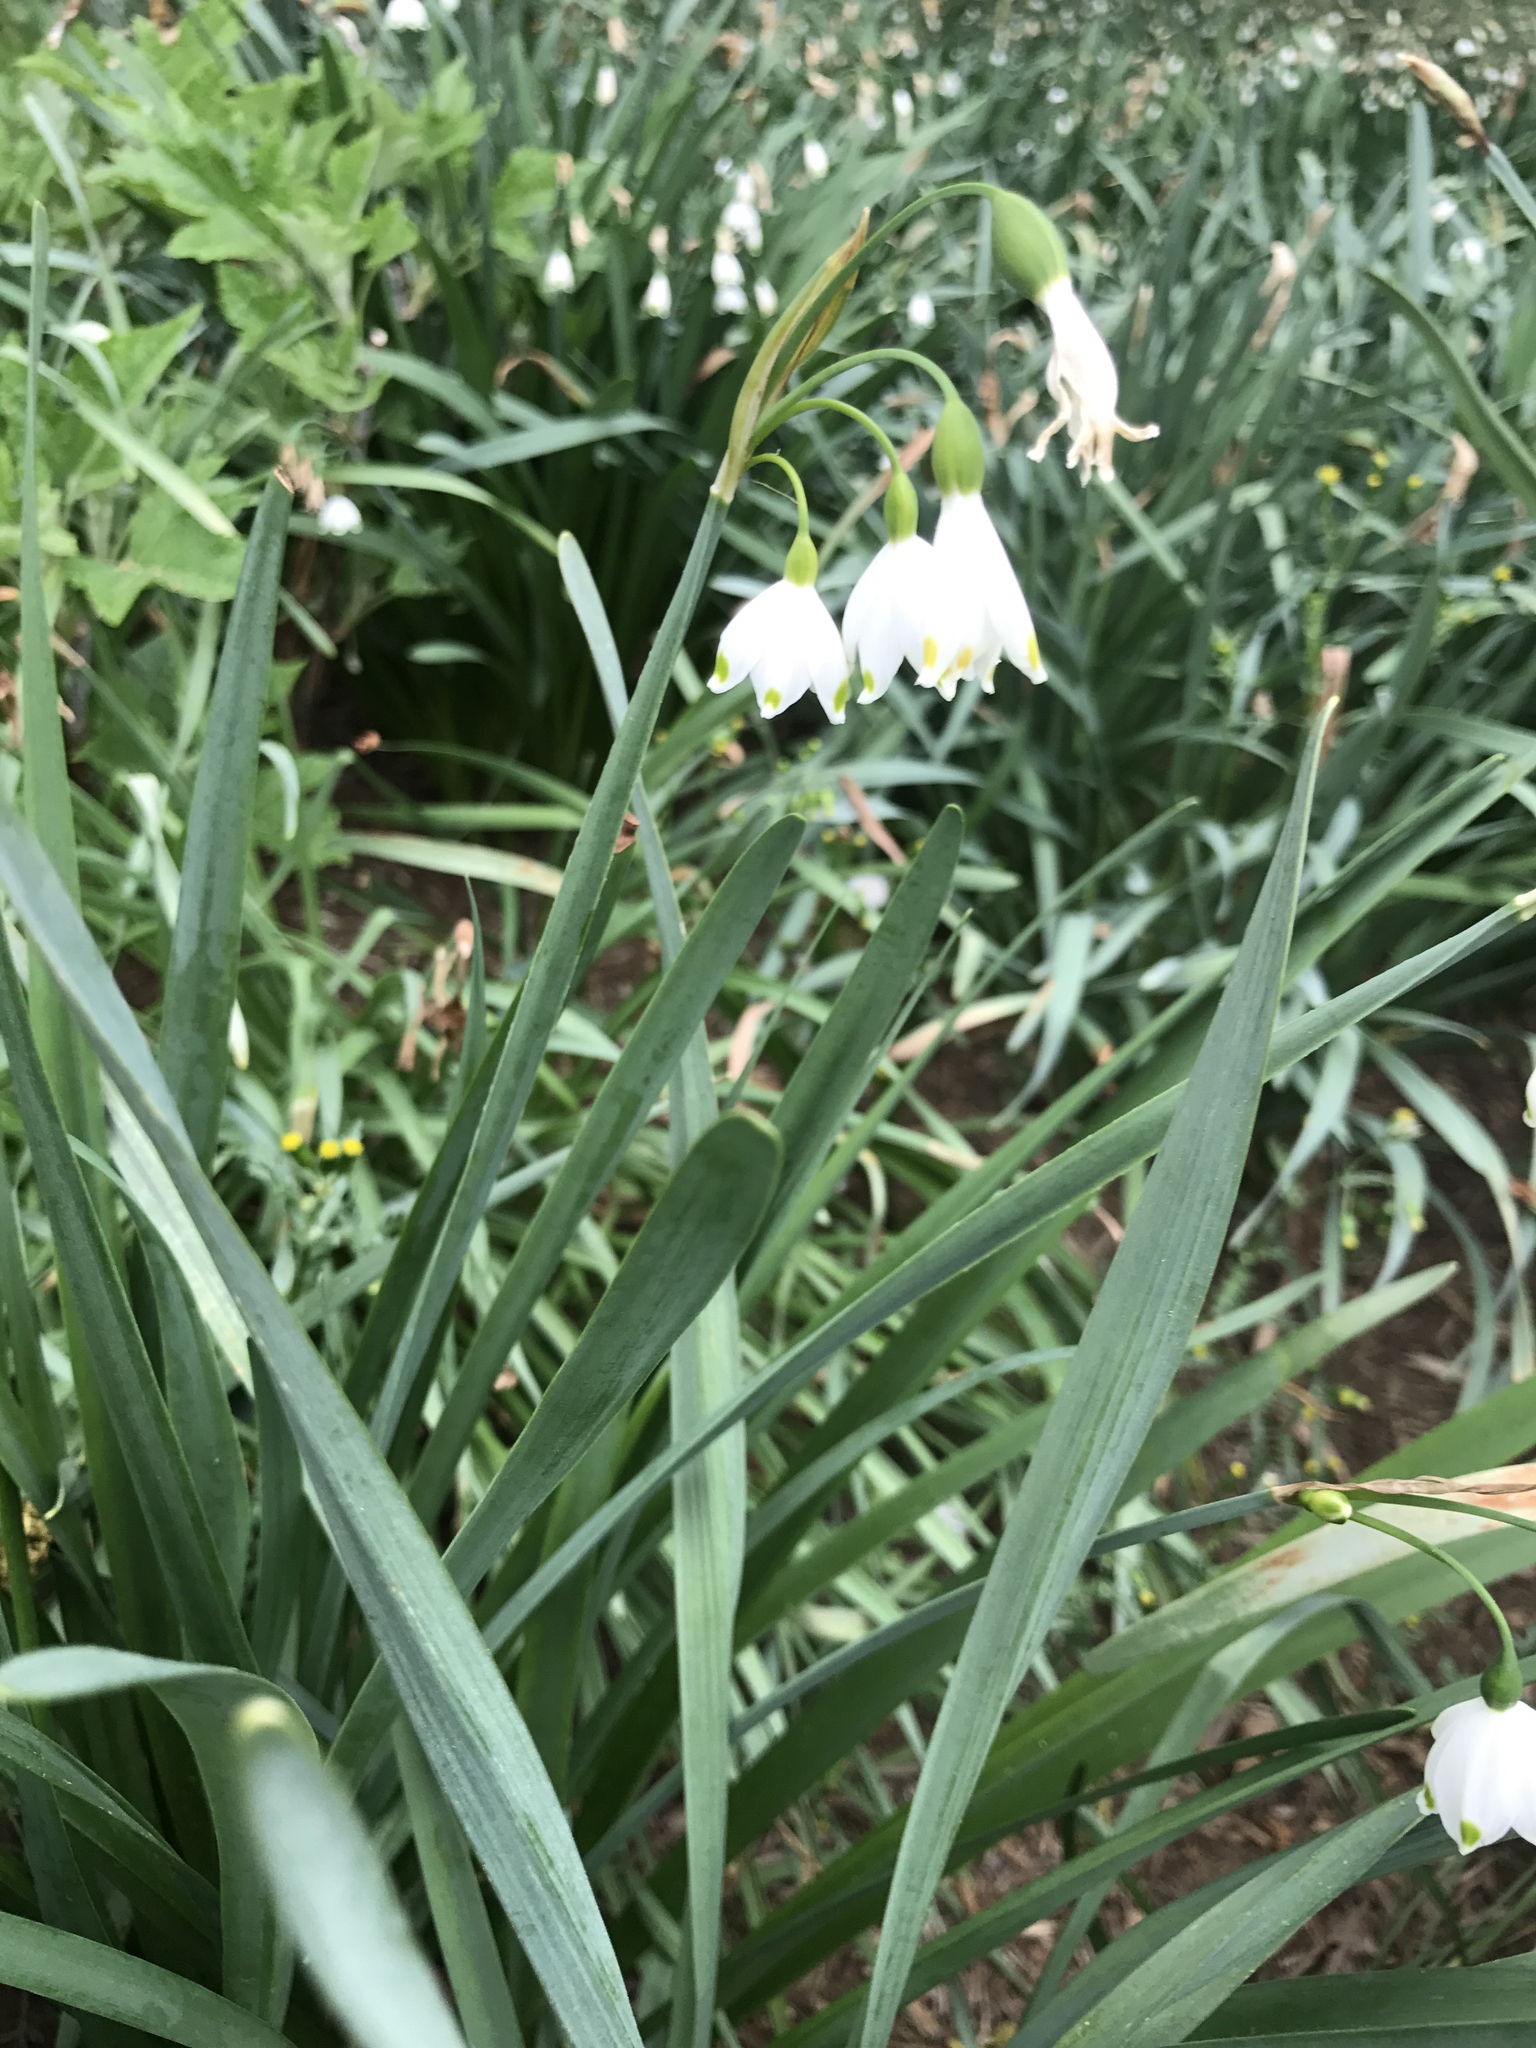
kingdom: Plantae
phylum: Tracheophyta
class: Liliopsida
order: Asparagales
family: Amaryllidaceae
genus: Leucojum
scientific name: Leucojum aestivum
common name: Summer snowflake
